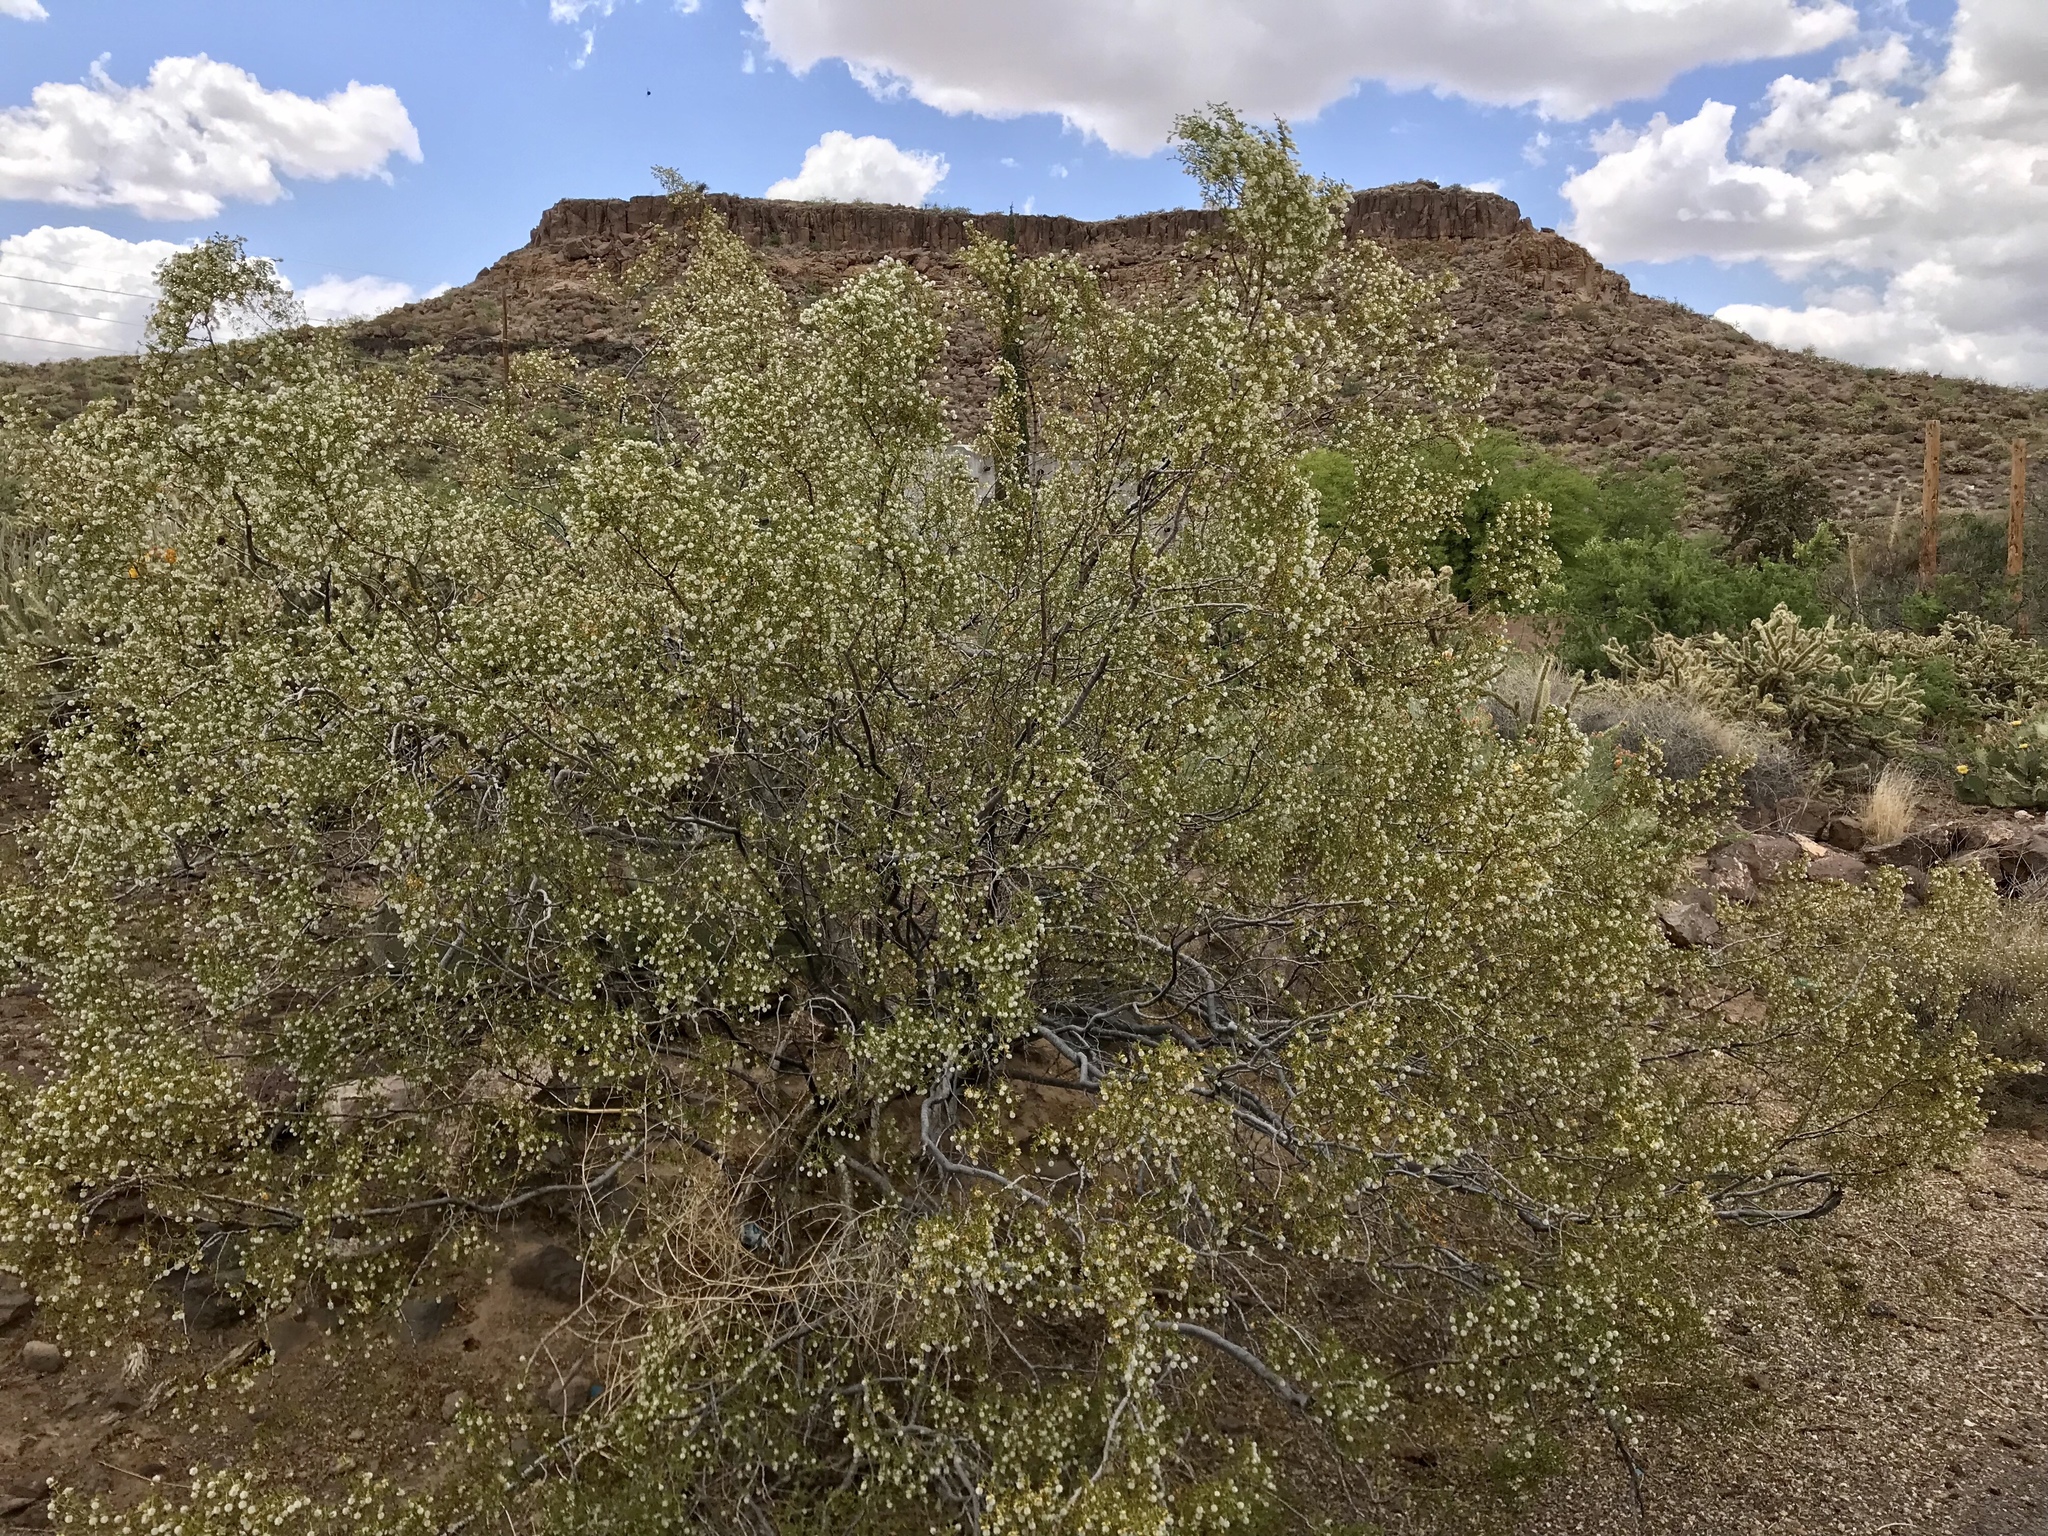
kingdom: Plantae
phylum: Tracheophyta
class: Magnoliopsida
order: Zygophyllales
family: Zygophyllaceae
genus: Larrea
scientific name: Larrea tridentata
